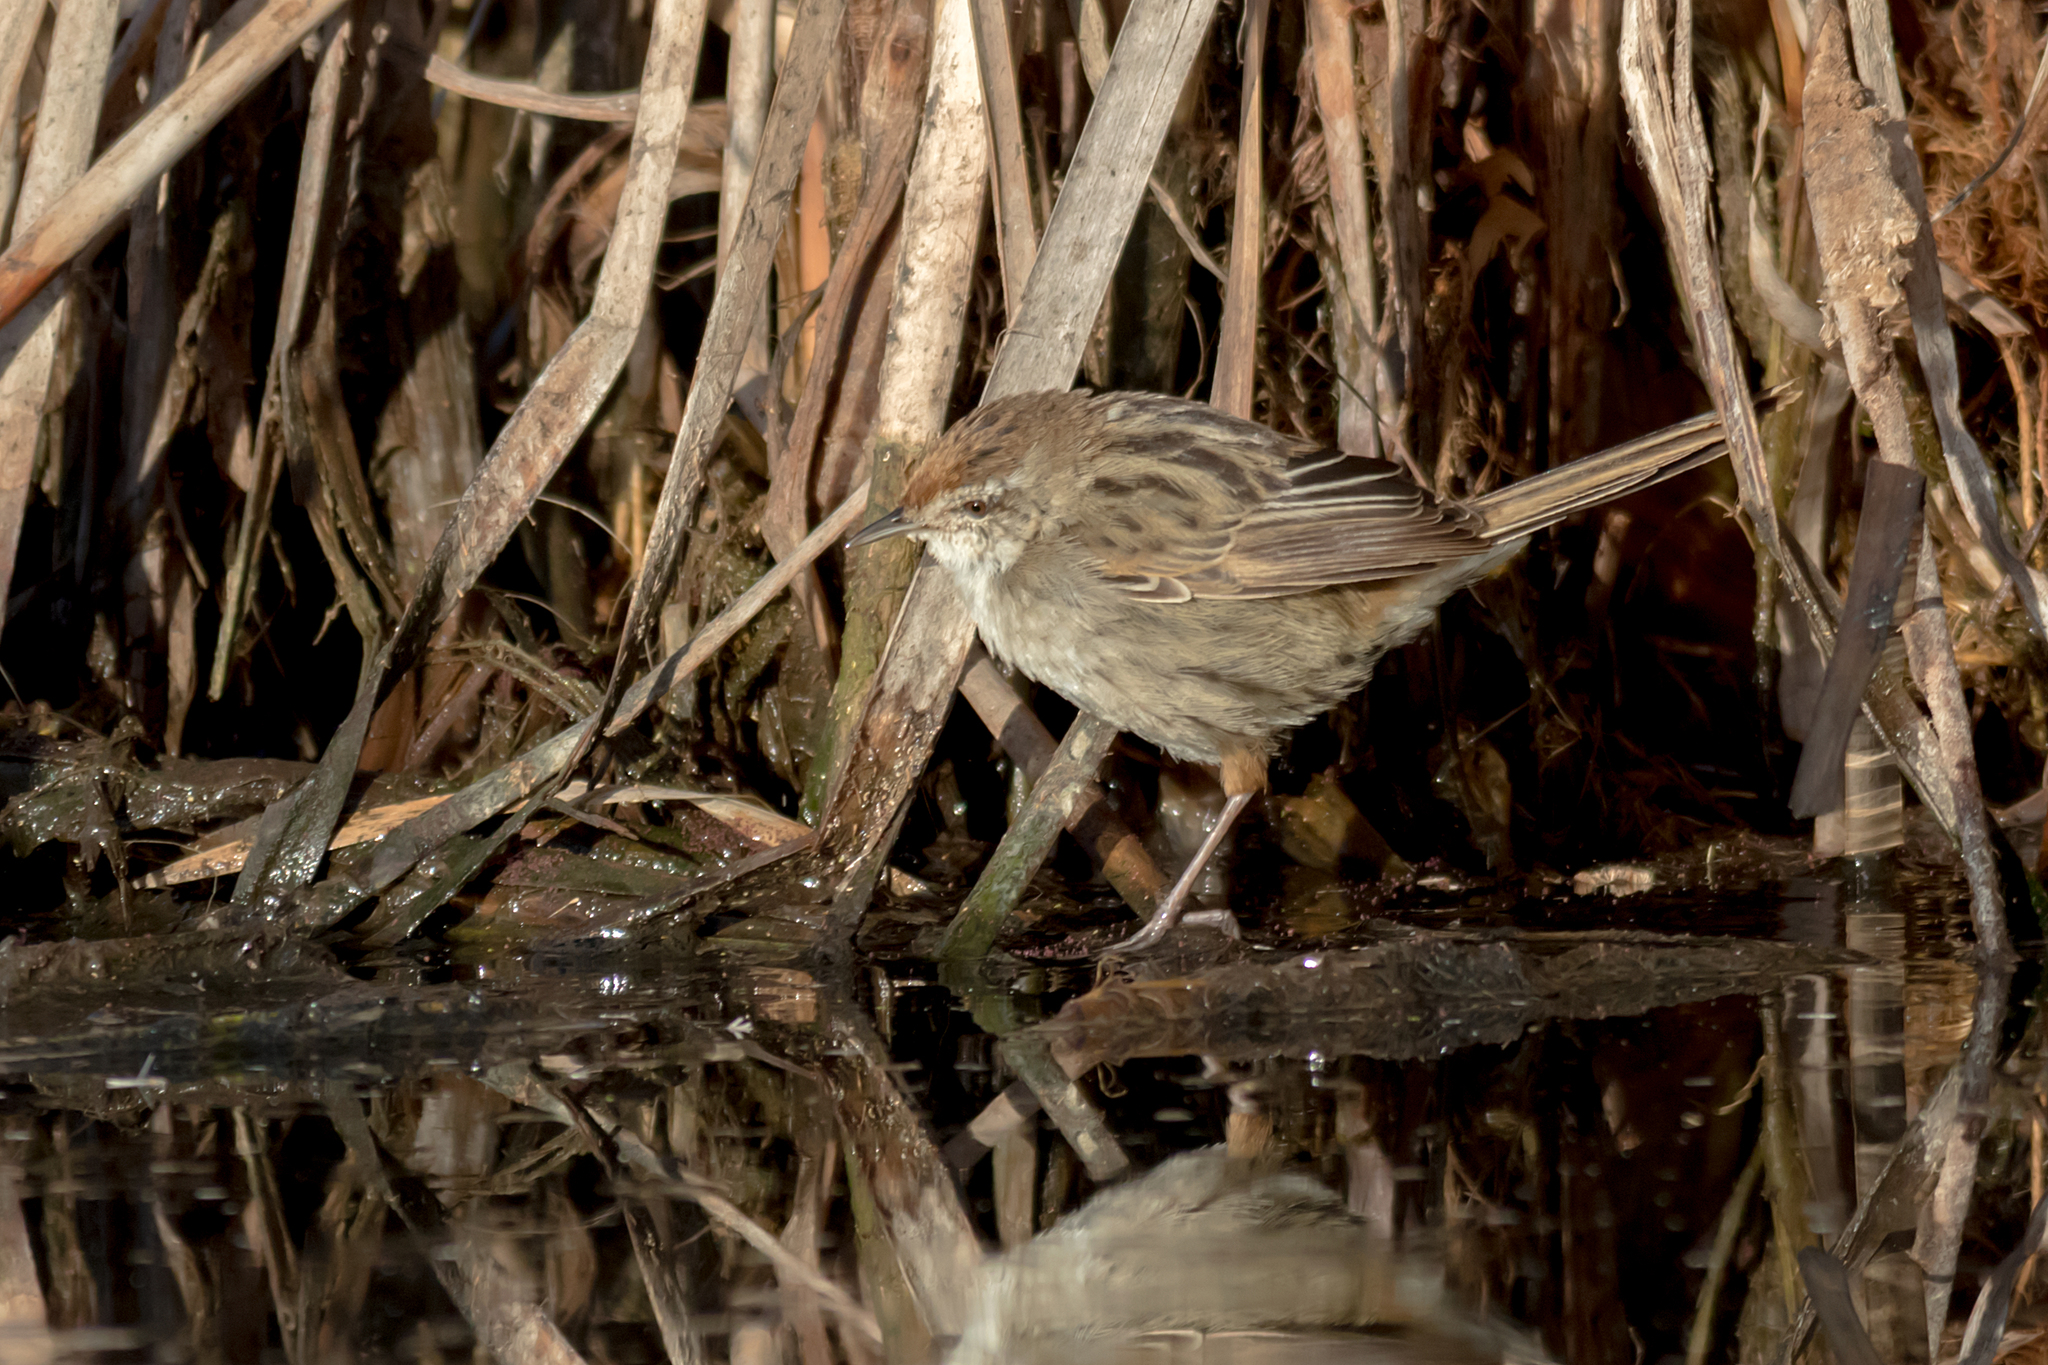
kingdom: Animalia
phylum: Chordata
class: Aves
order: Passeriformes
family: Locustellidae
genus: Megalurus
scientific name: Megalurus gramineus
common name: Little grassbird
